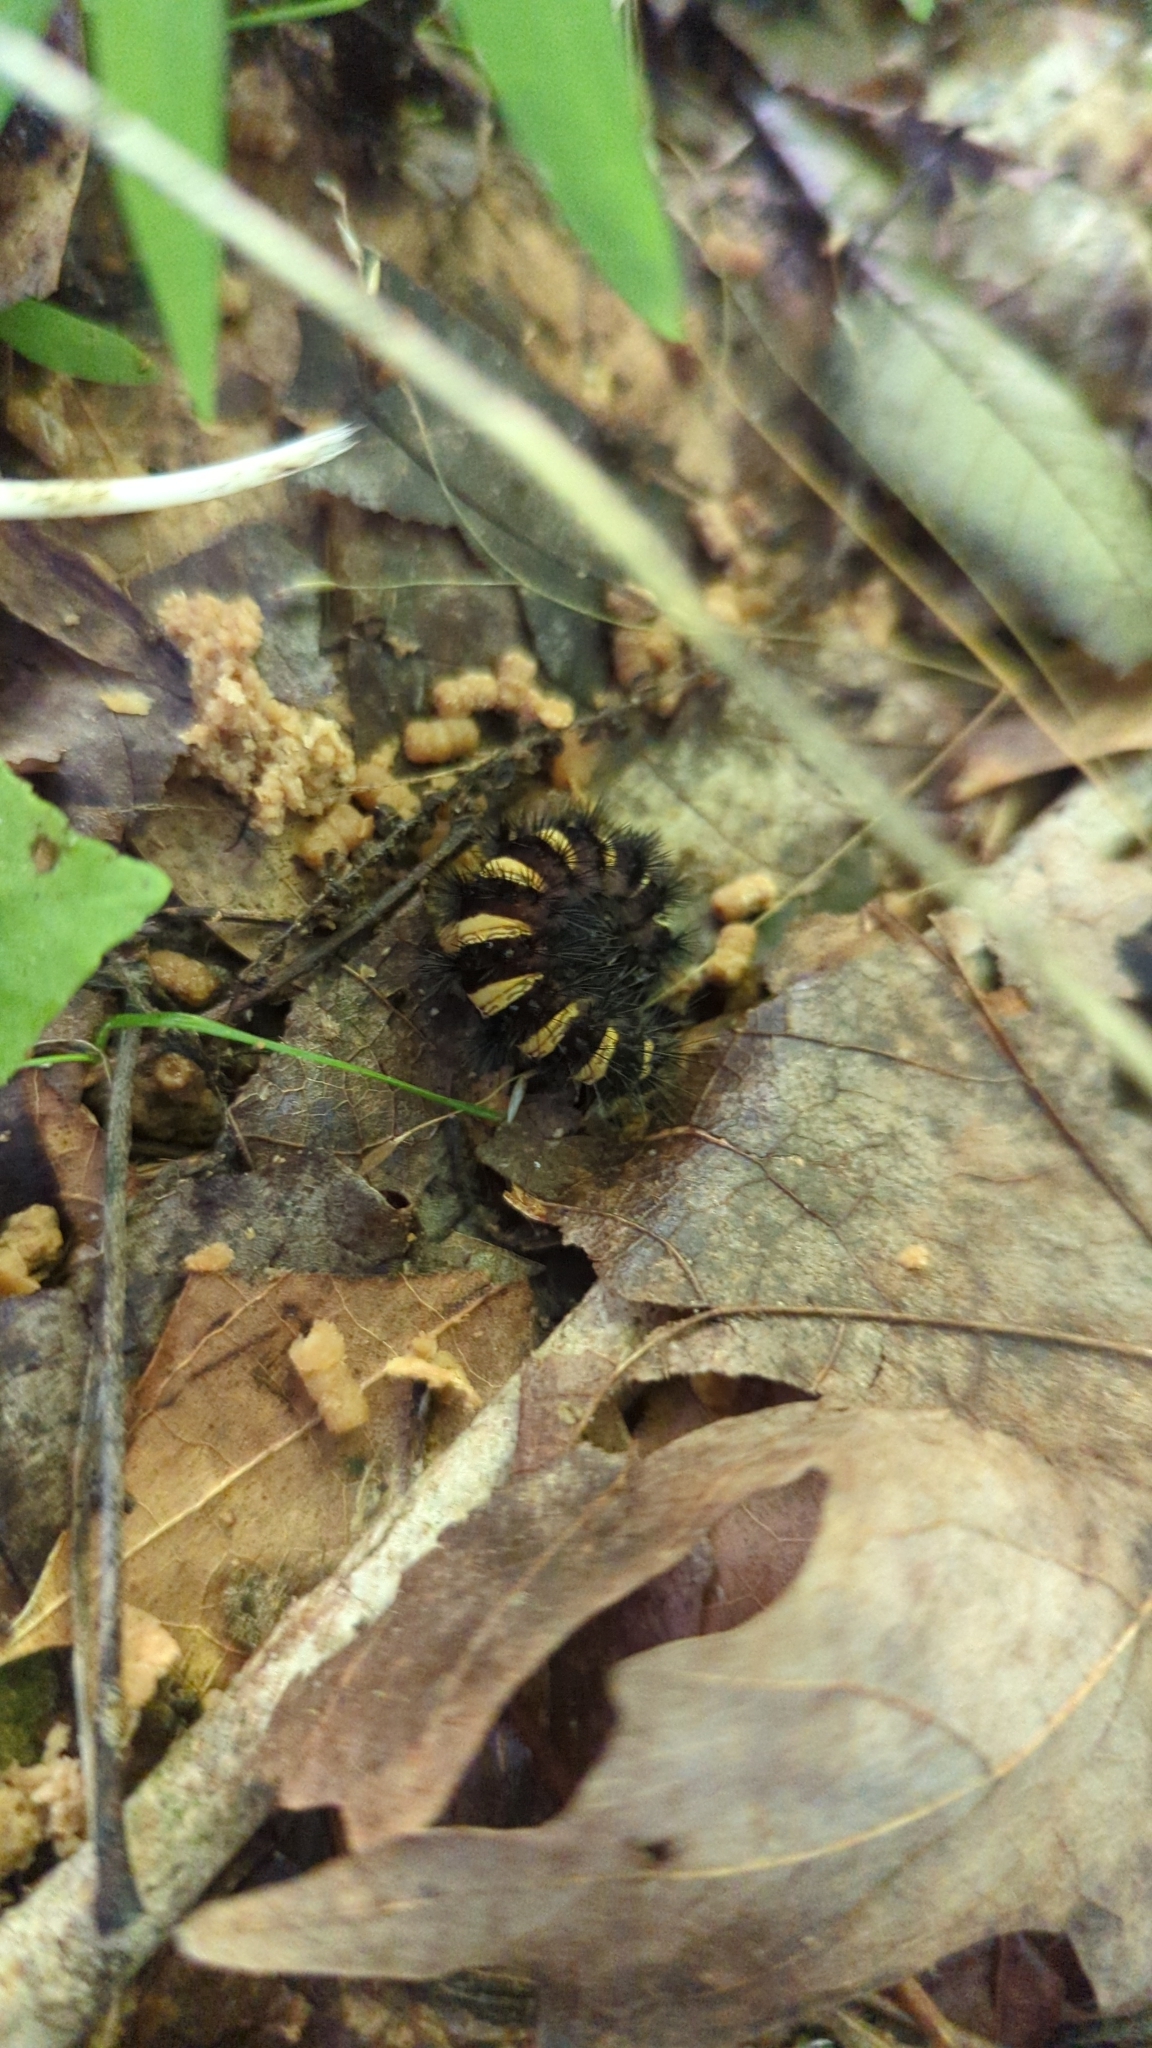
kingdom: Animalia
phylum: Arthropoda
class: Insecta
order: Lepidoptera
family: Zygaenidae
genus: Harrisina
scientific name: Harrisina americana
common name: Grapeleaf skeletonizer moth
